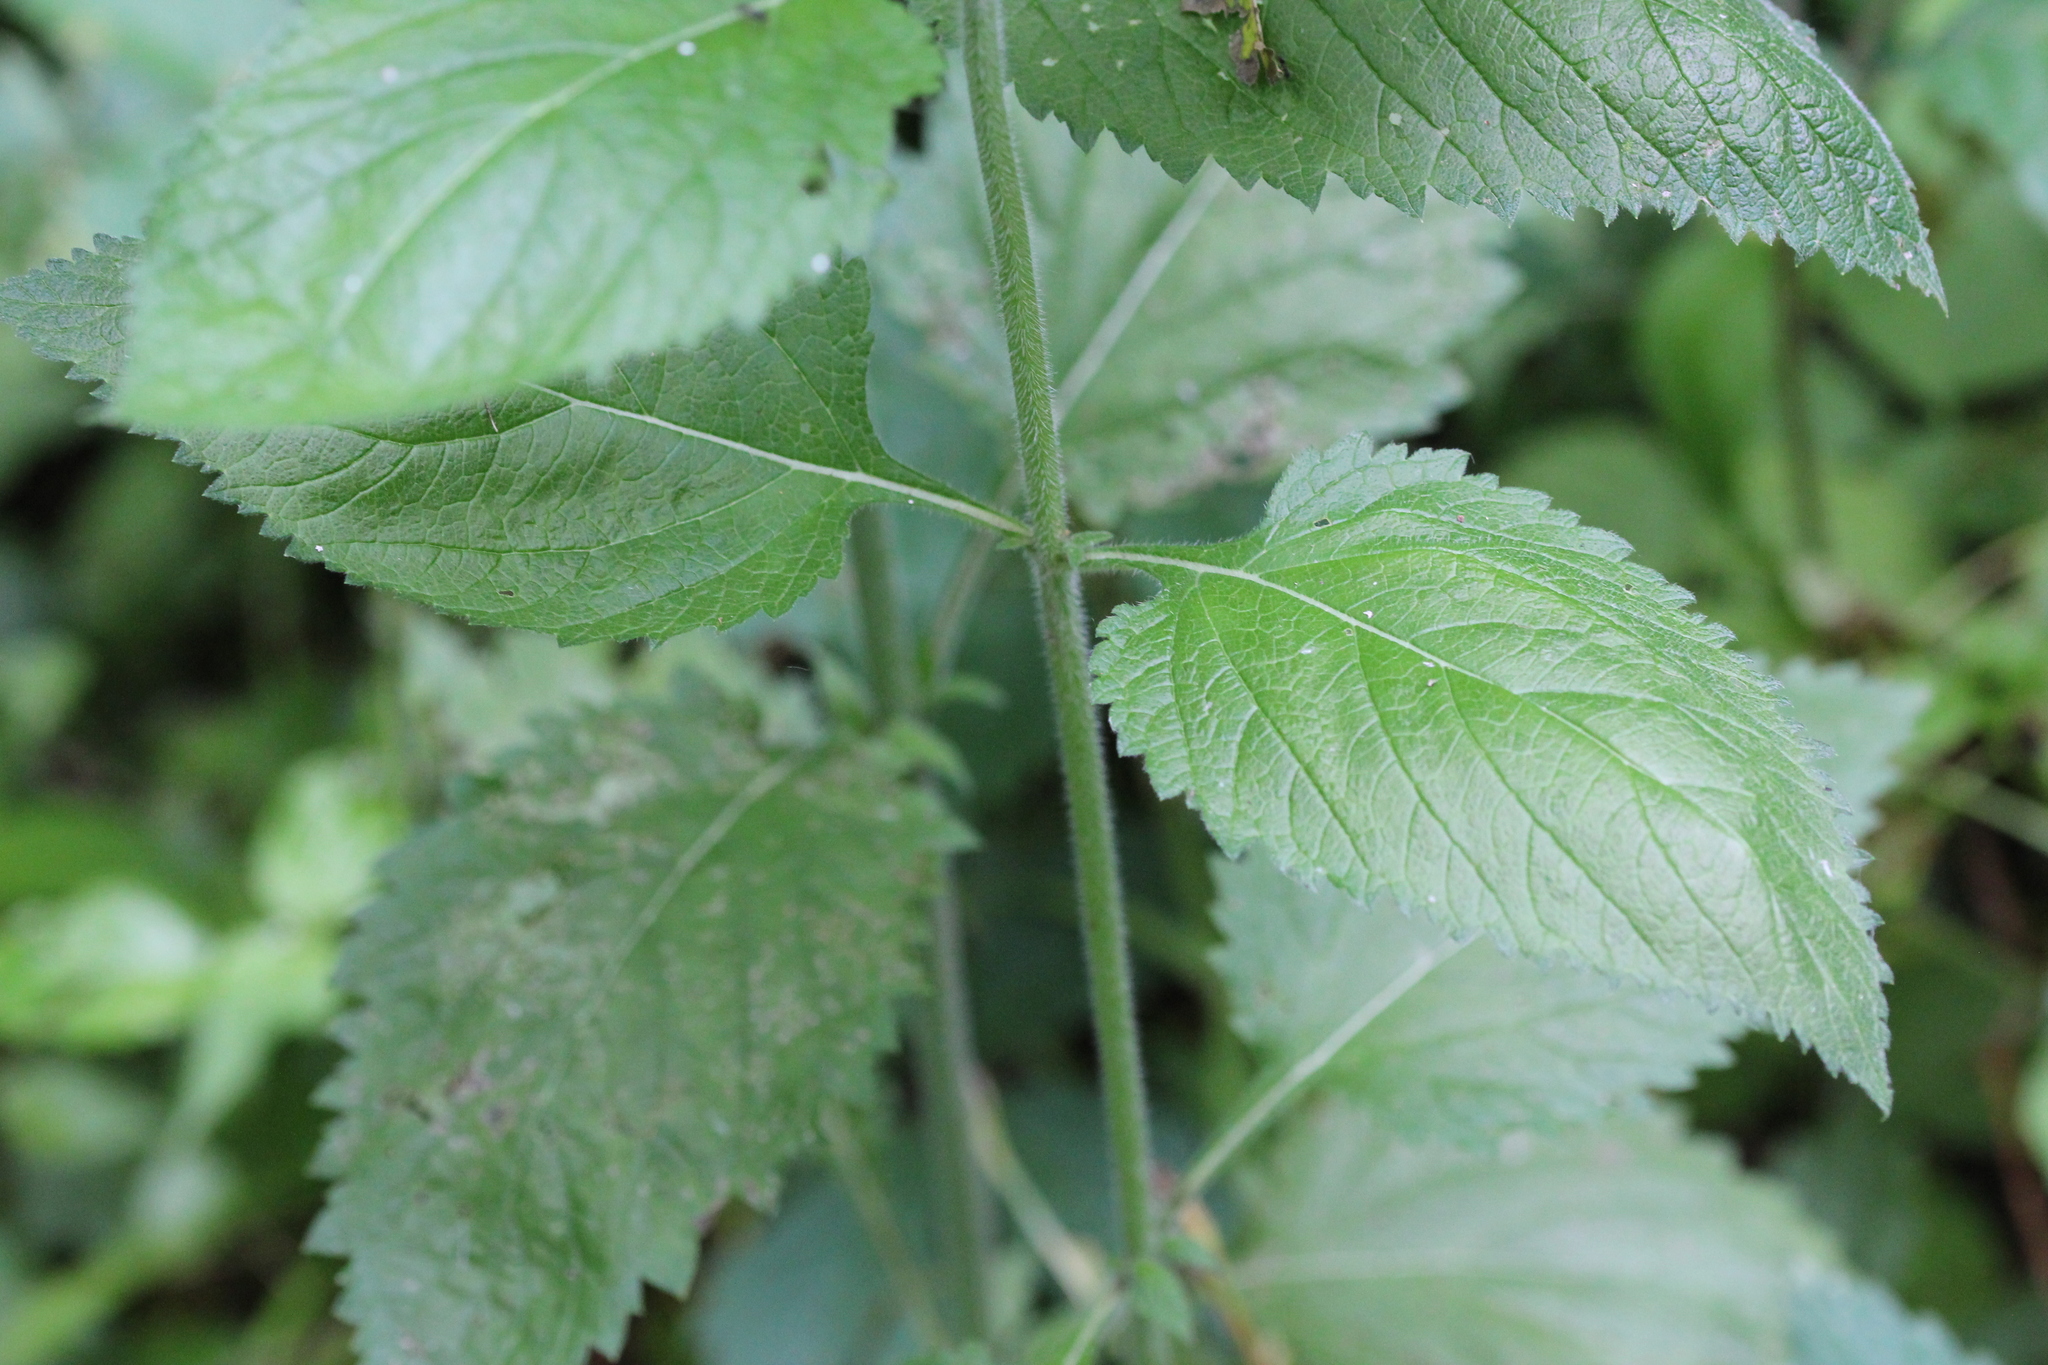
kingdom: Plantae
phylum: Tracheophyta
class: Magnoliopsida
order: Lamiales
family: Verbenaceae
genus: Verbena
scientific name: Verbena urticifolia
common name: Nettle-leaved vervain
